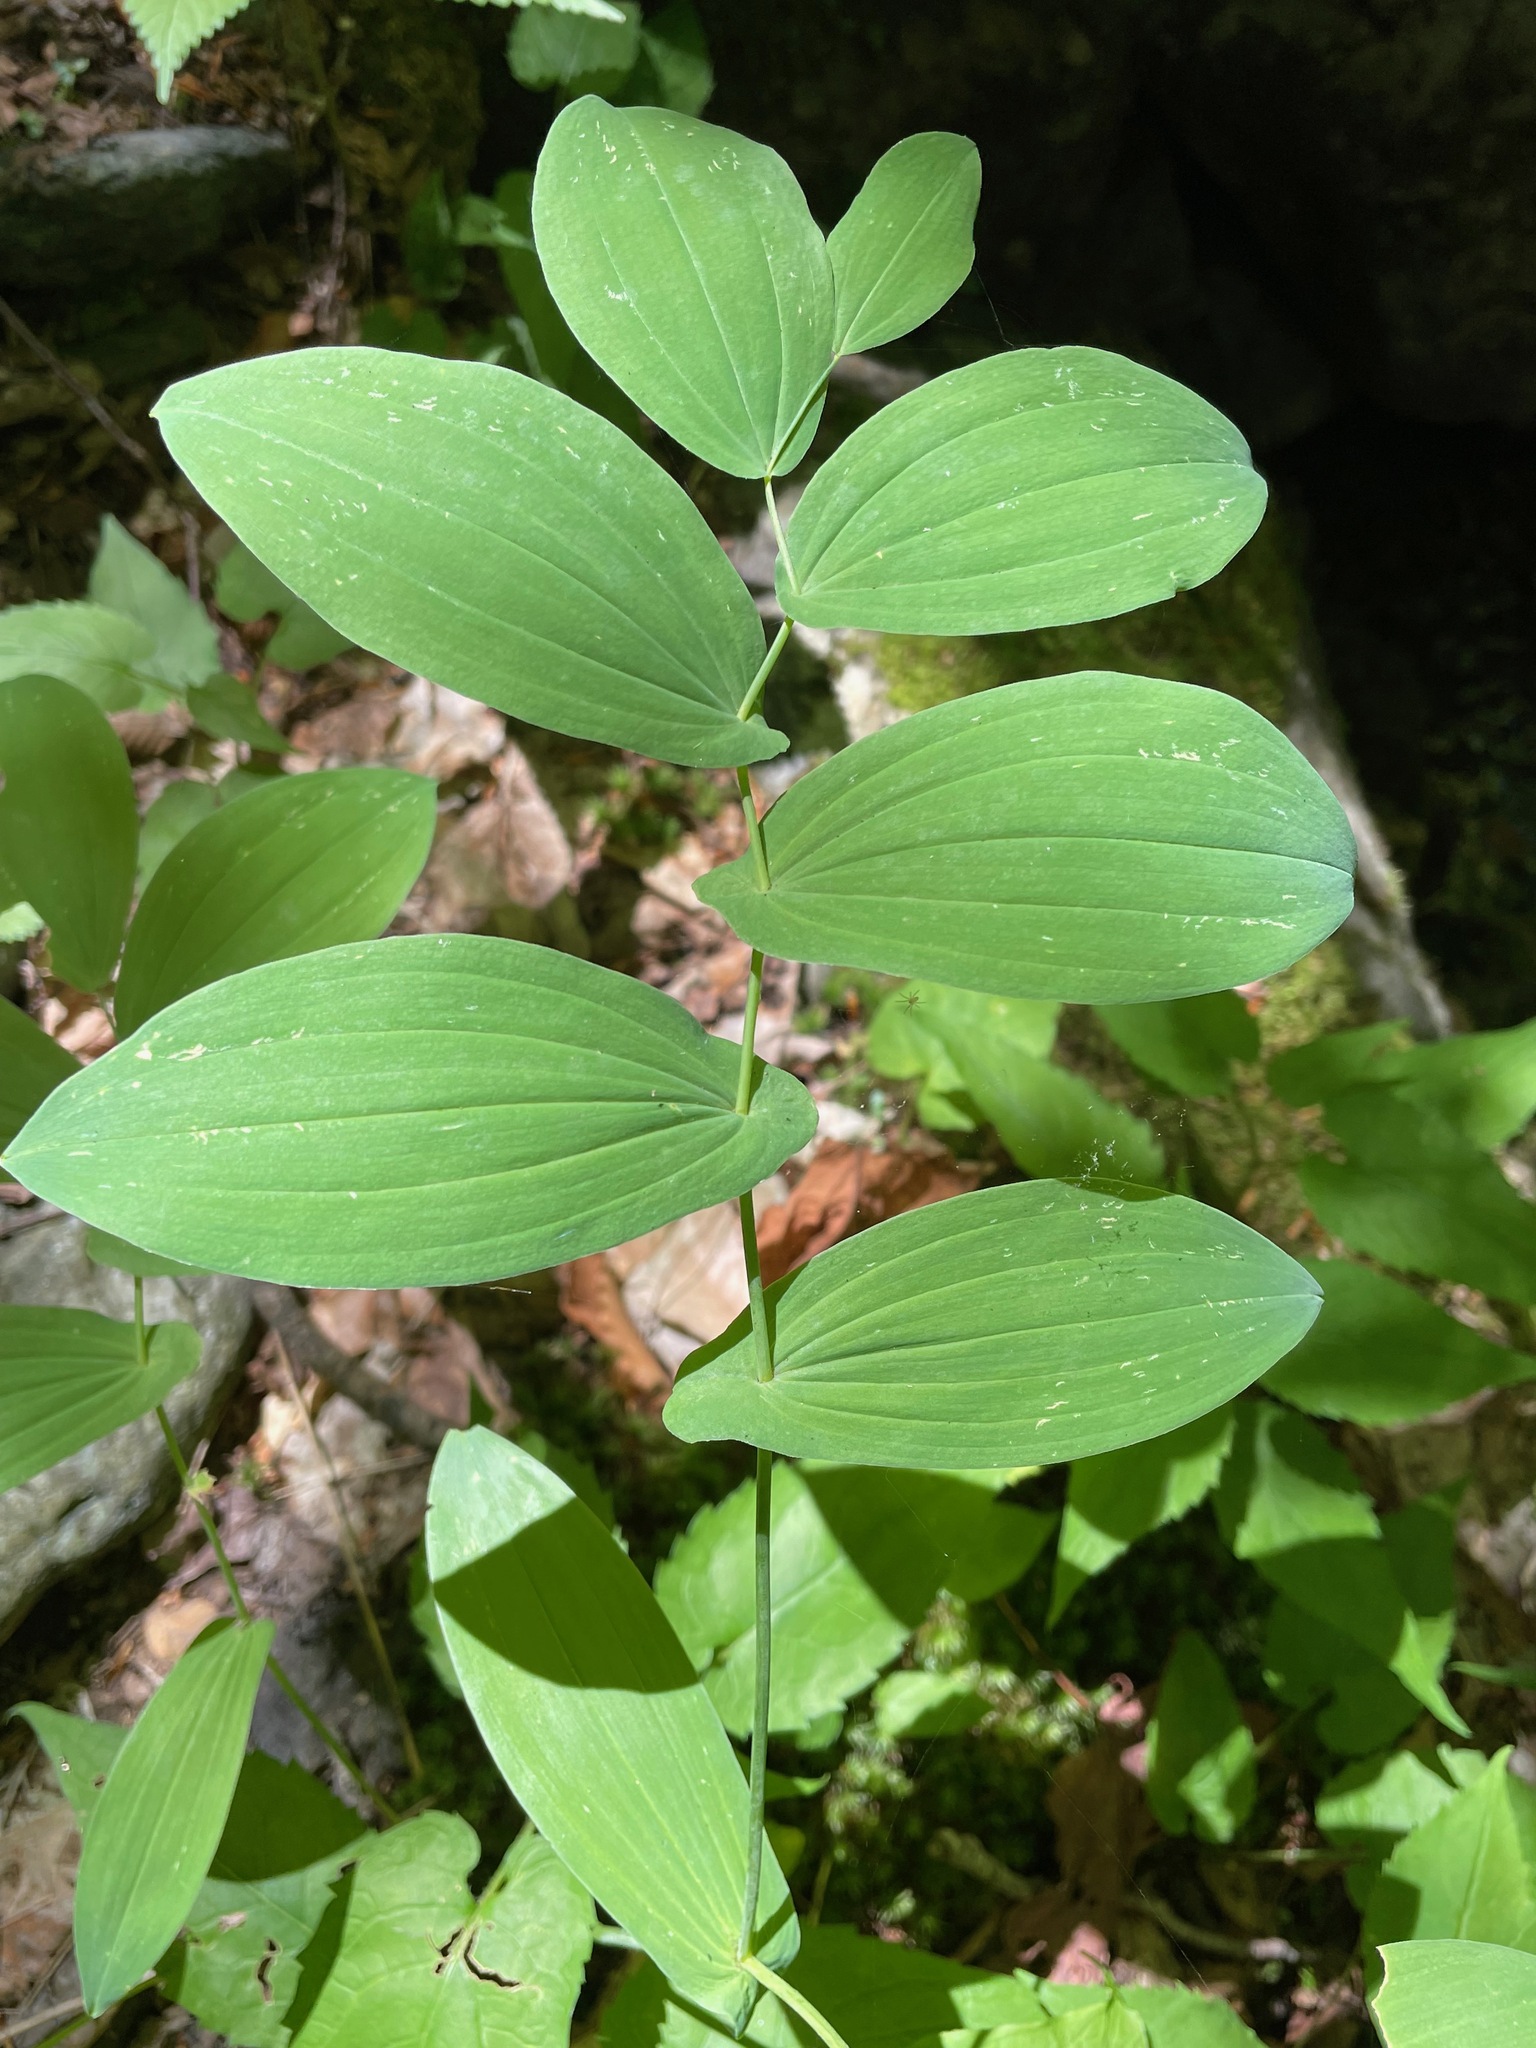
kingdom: Plantae
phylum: Tracheophyta
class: Liliopsida
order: Liliales
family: Colchicaceae
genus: Uvularia
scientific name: Uvularia grandiflora
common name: Bellwort
